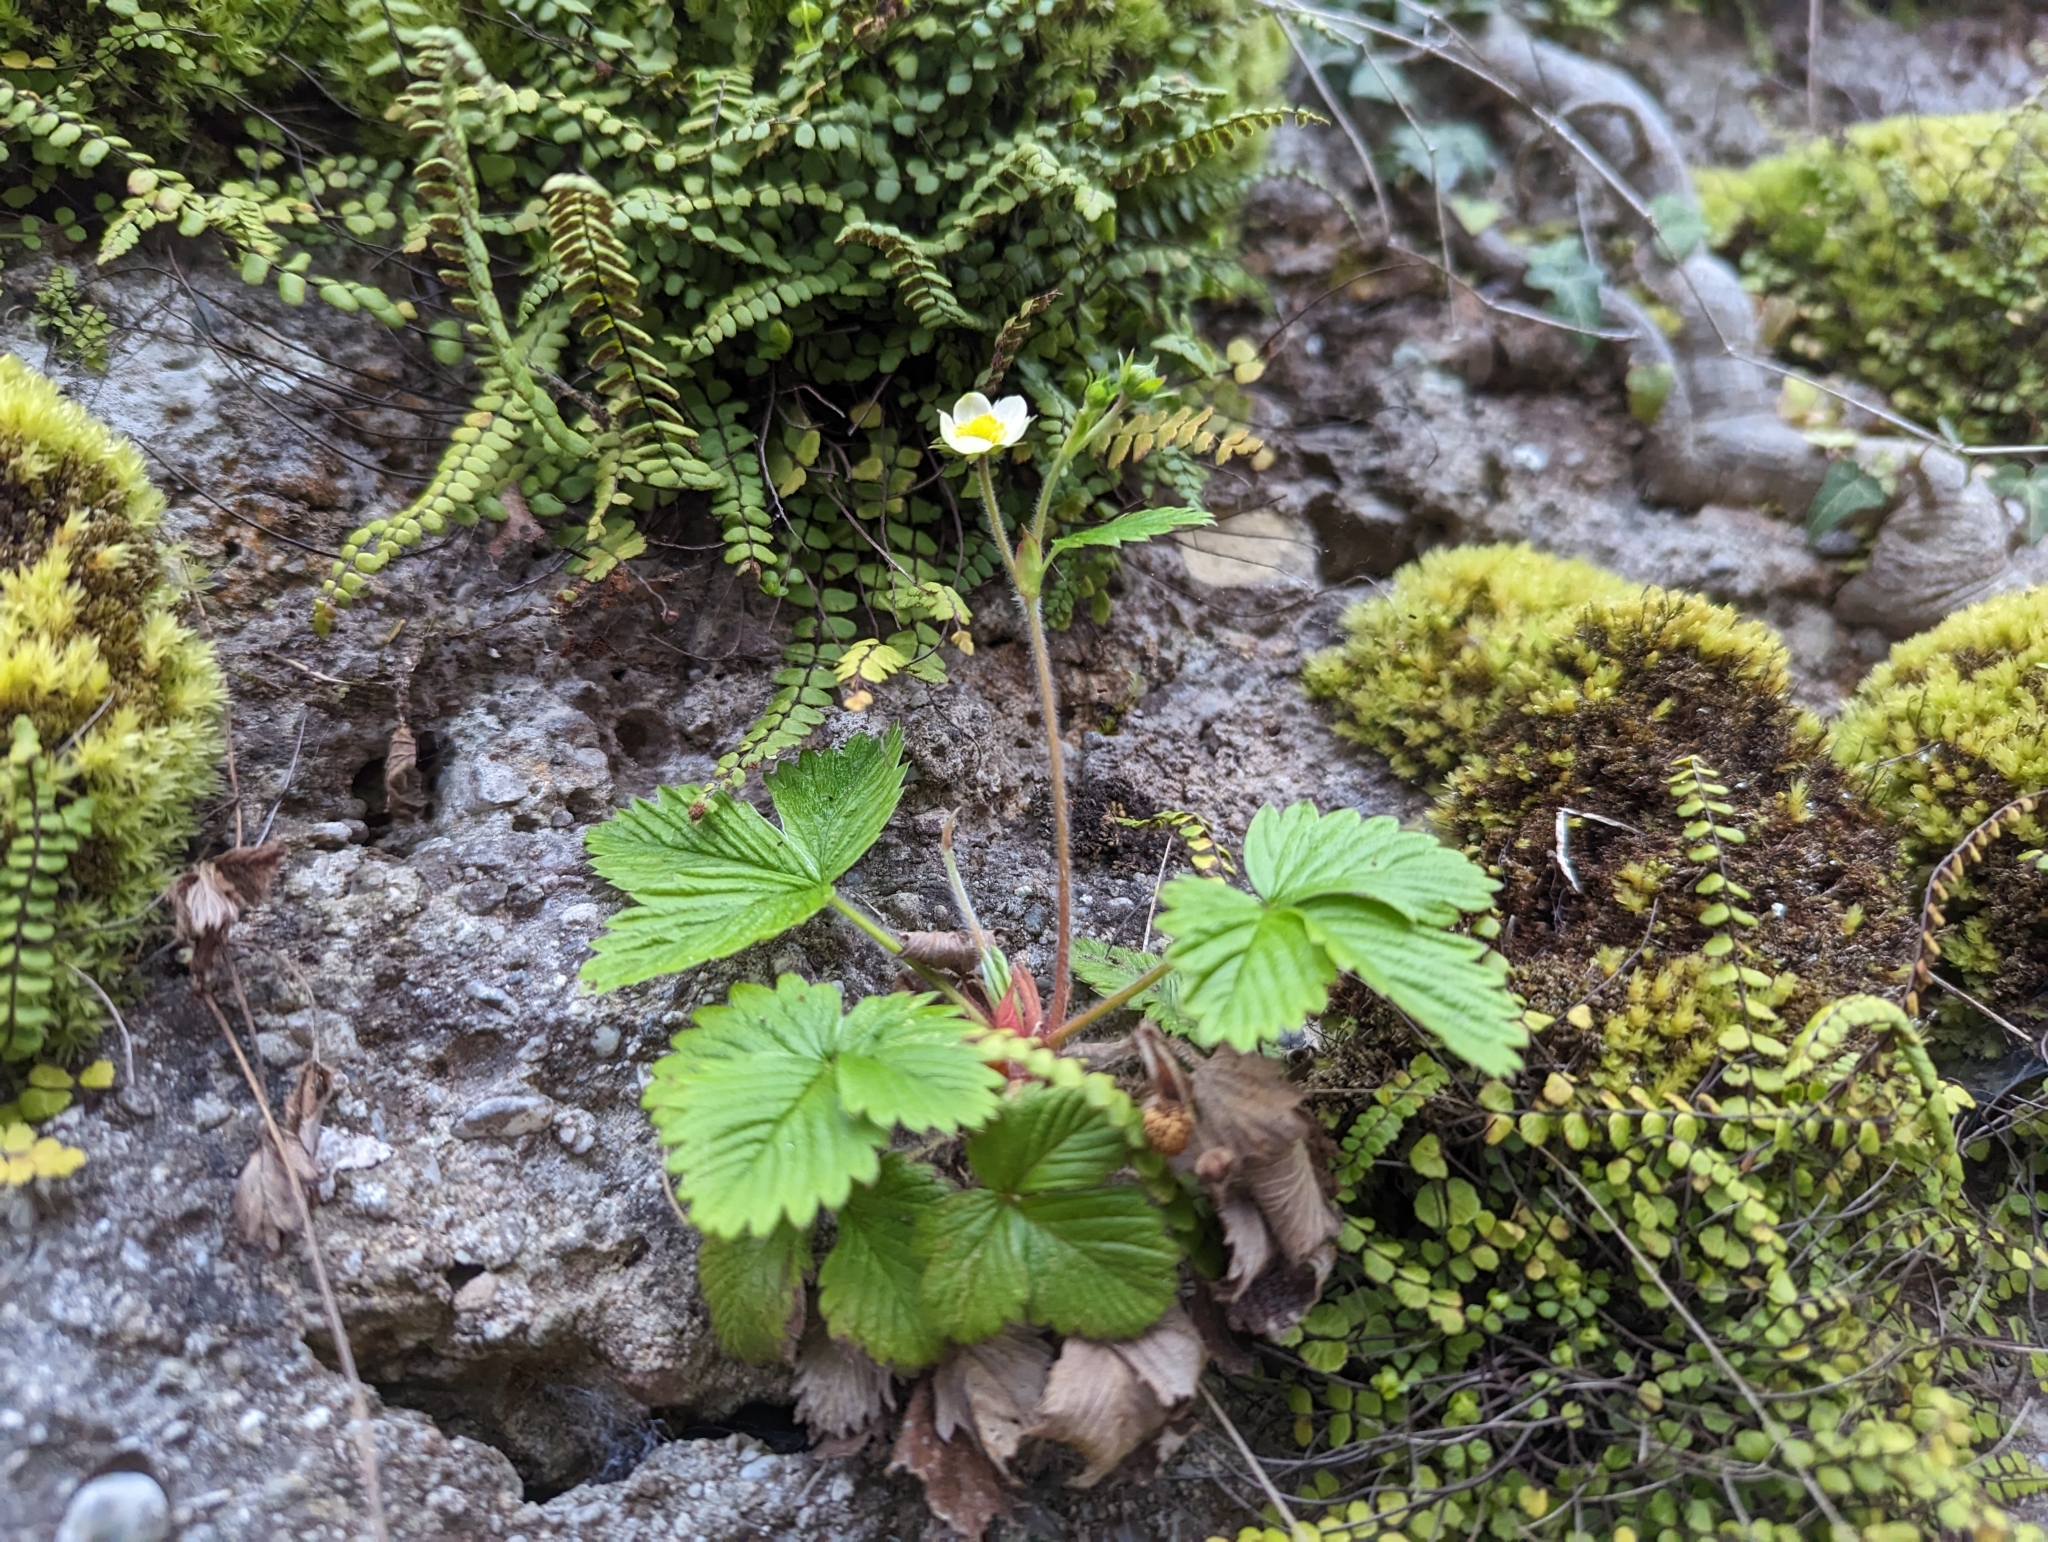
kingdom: Plantae
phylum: Tracheophyta
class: Magnoliopsida
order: Rosales
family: Rosaceae
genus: Fragaria
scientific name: Fragaria vesca
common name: Wild strawberry
